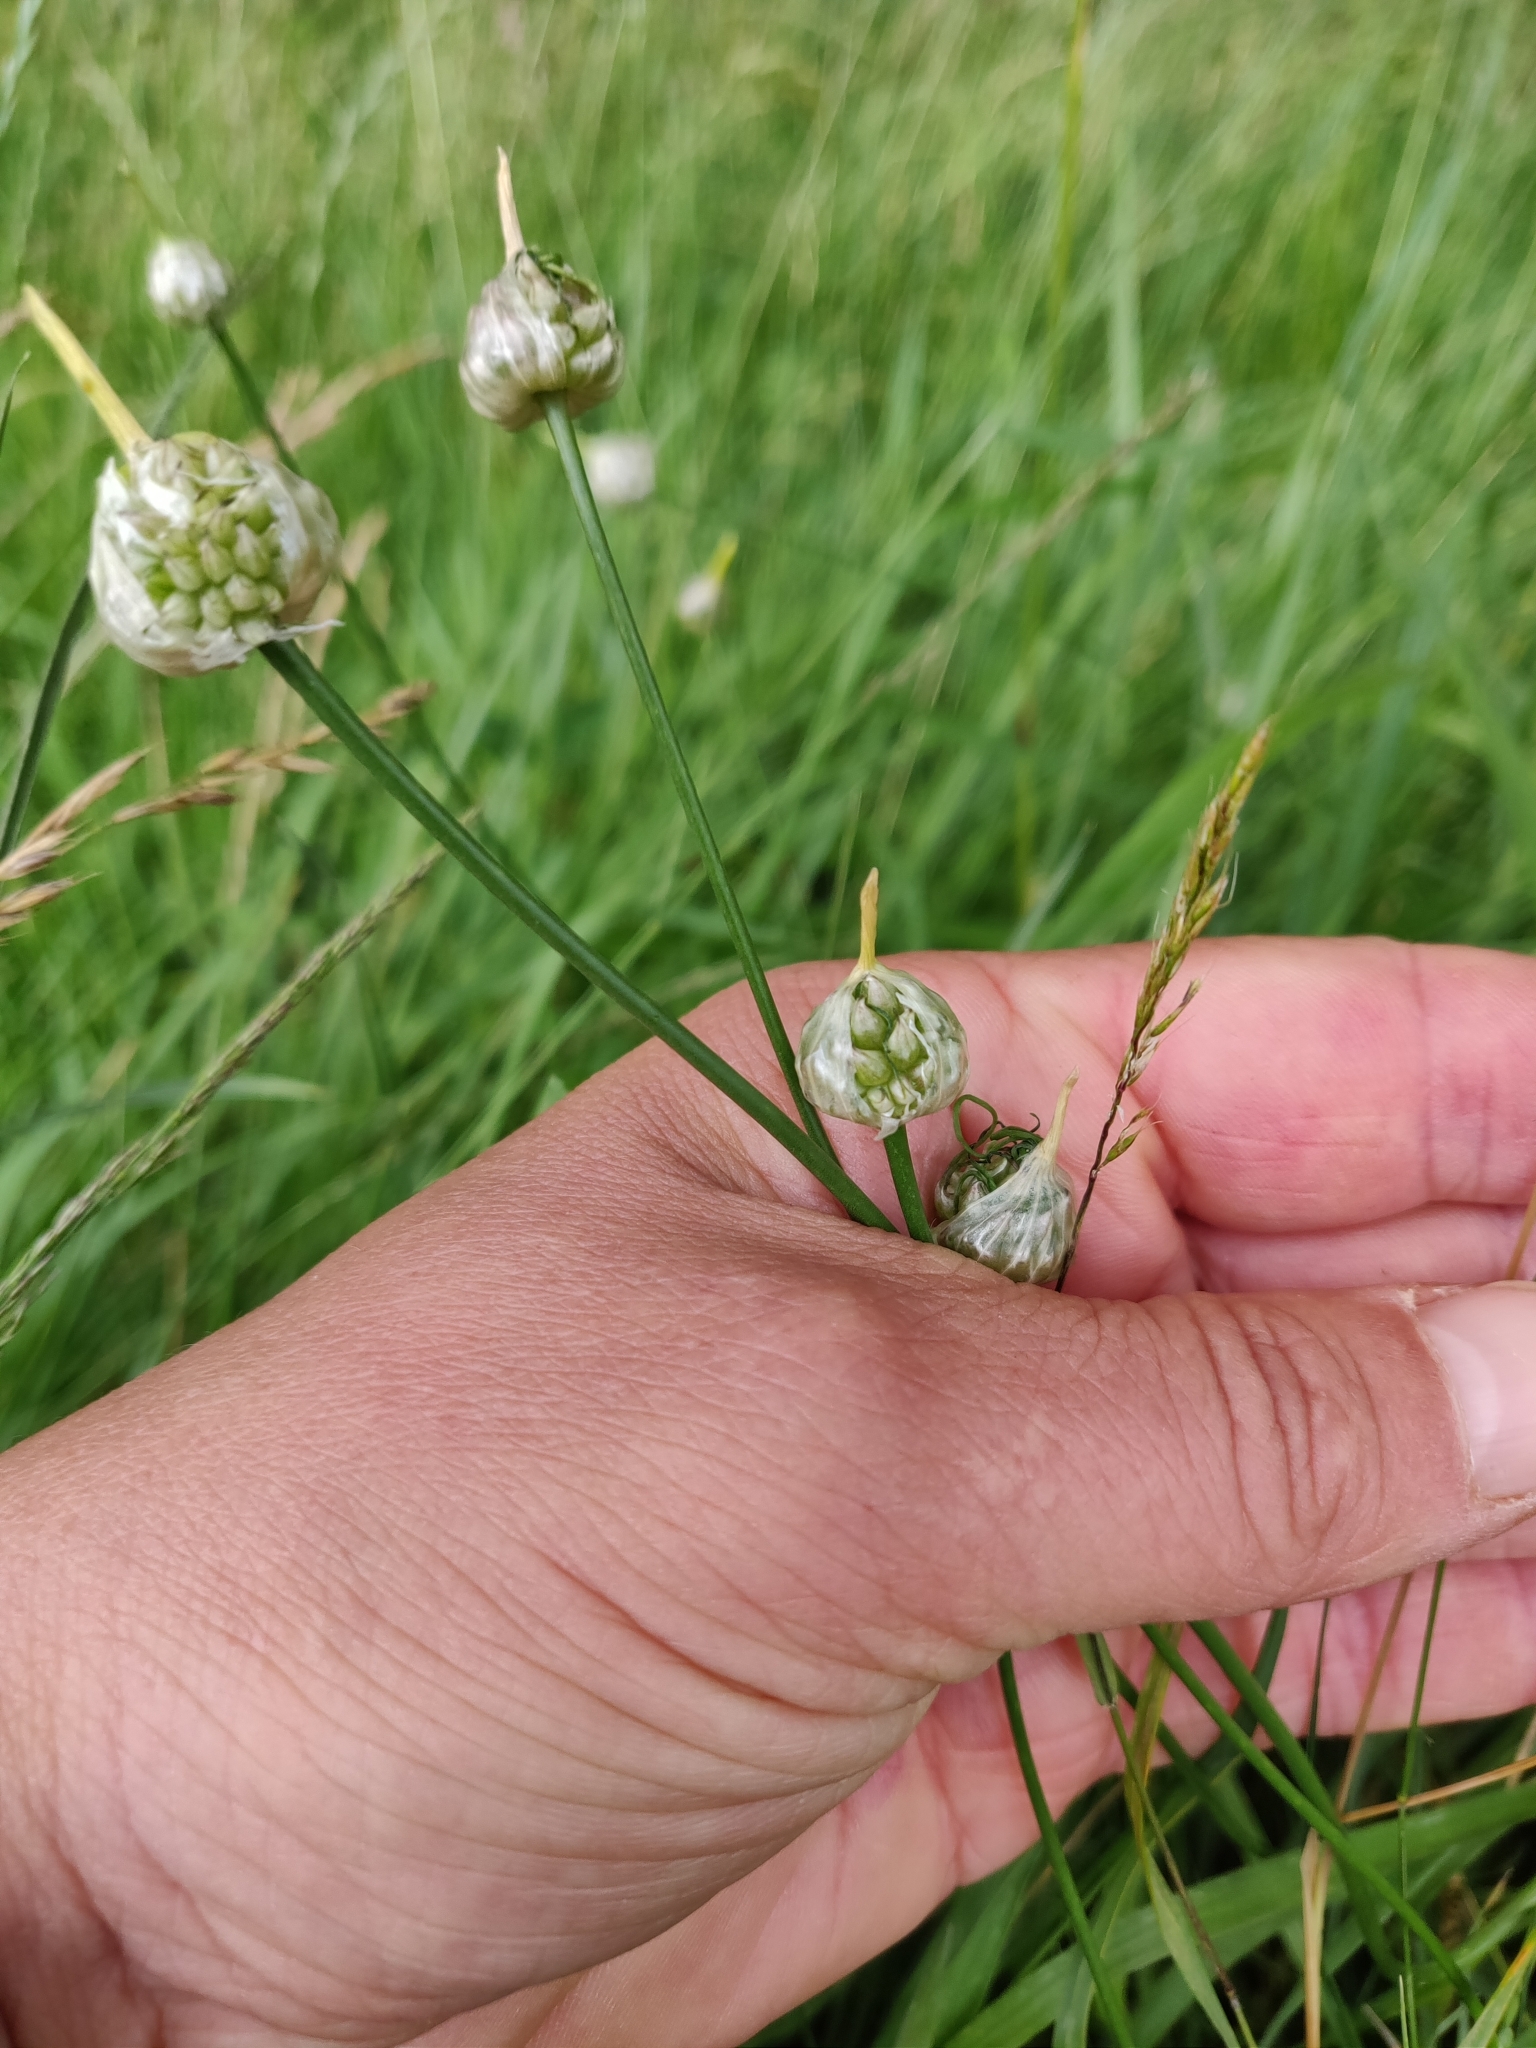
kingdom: Plantae
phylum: Tracheophyta
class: Liliopsida
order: Asparagales
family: Amaryllidaceae
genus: Allium
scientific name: Allium vineale
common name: Crow garlic
